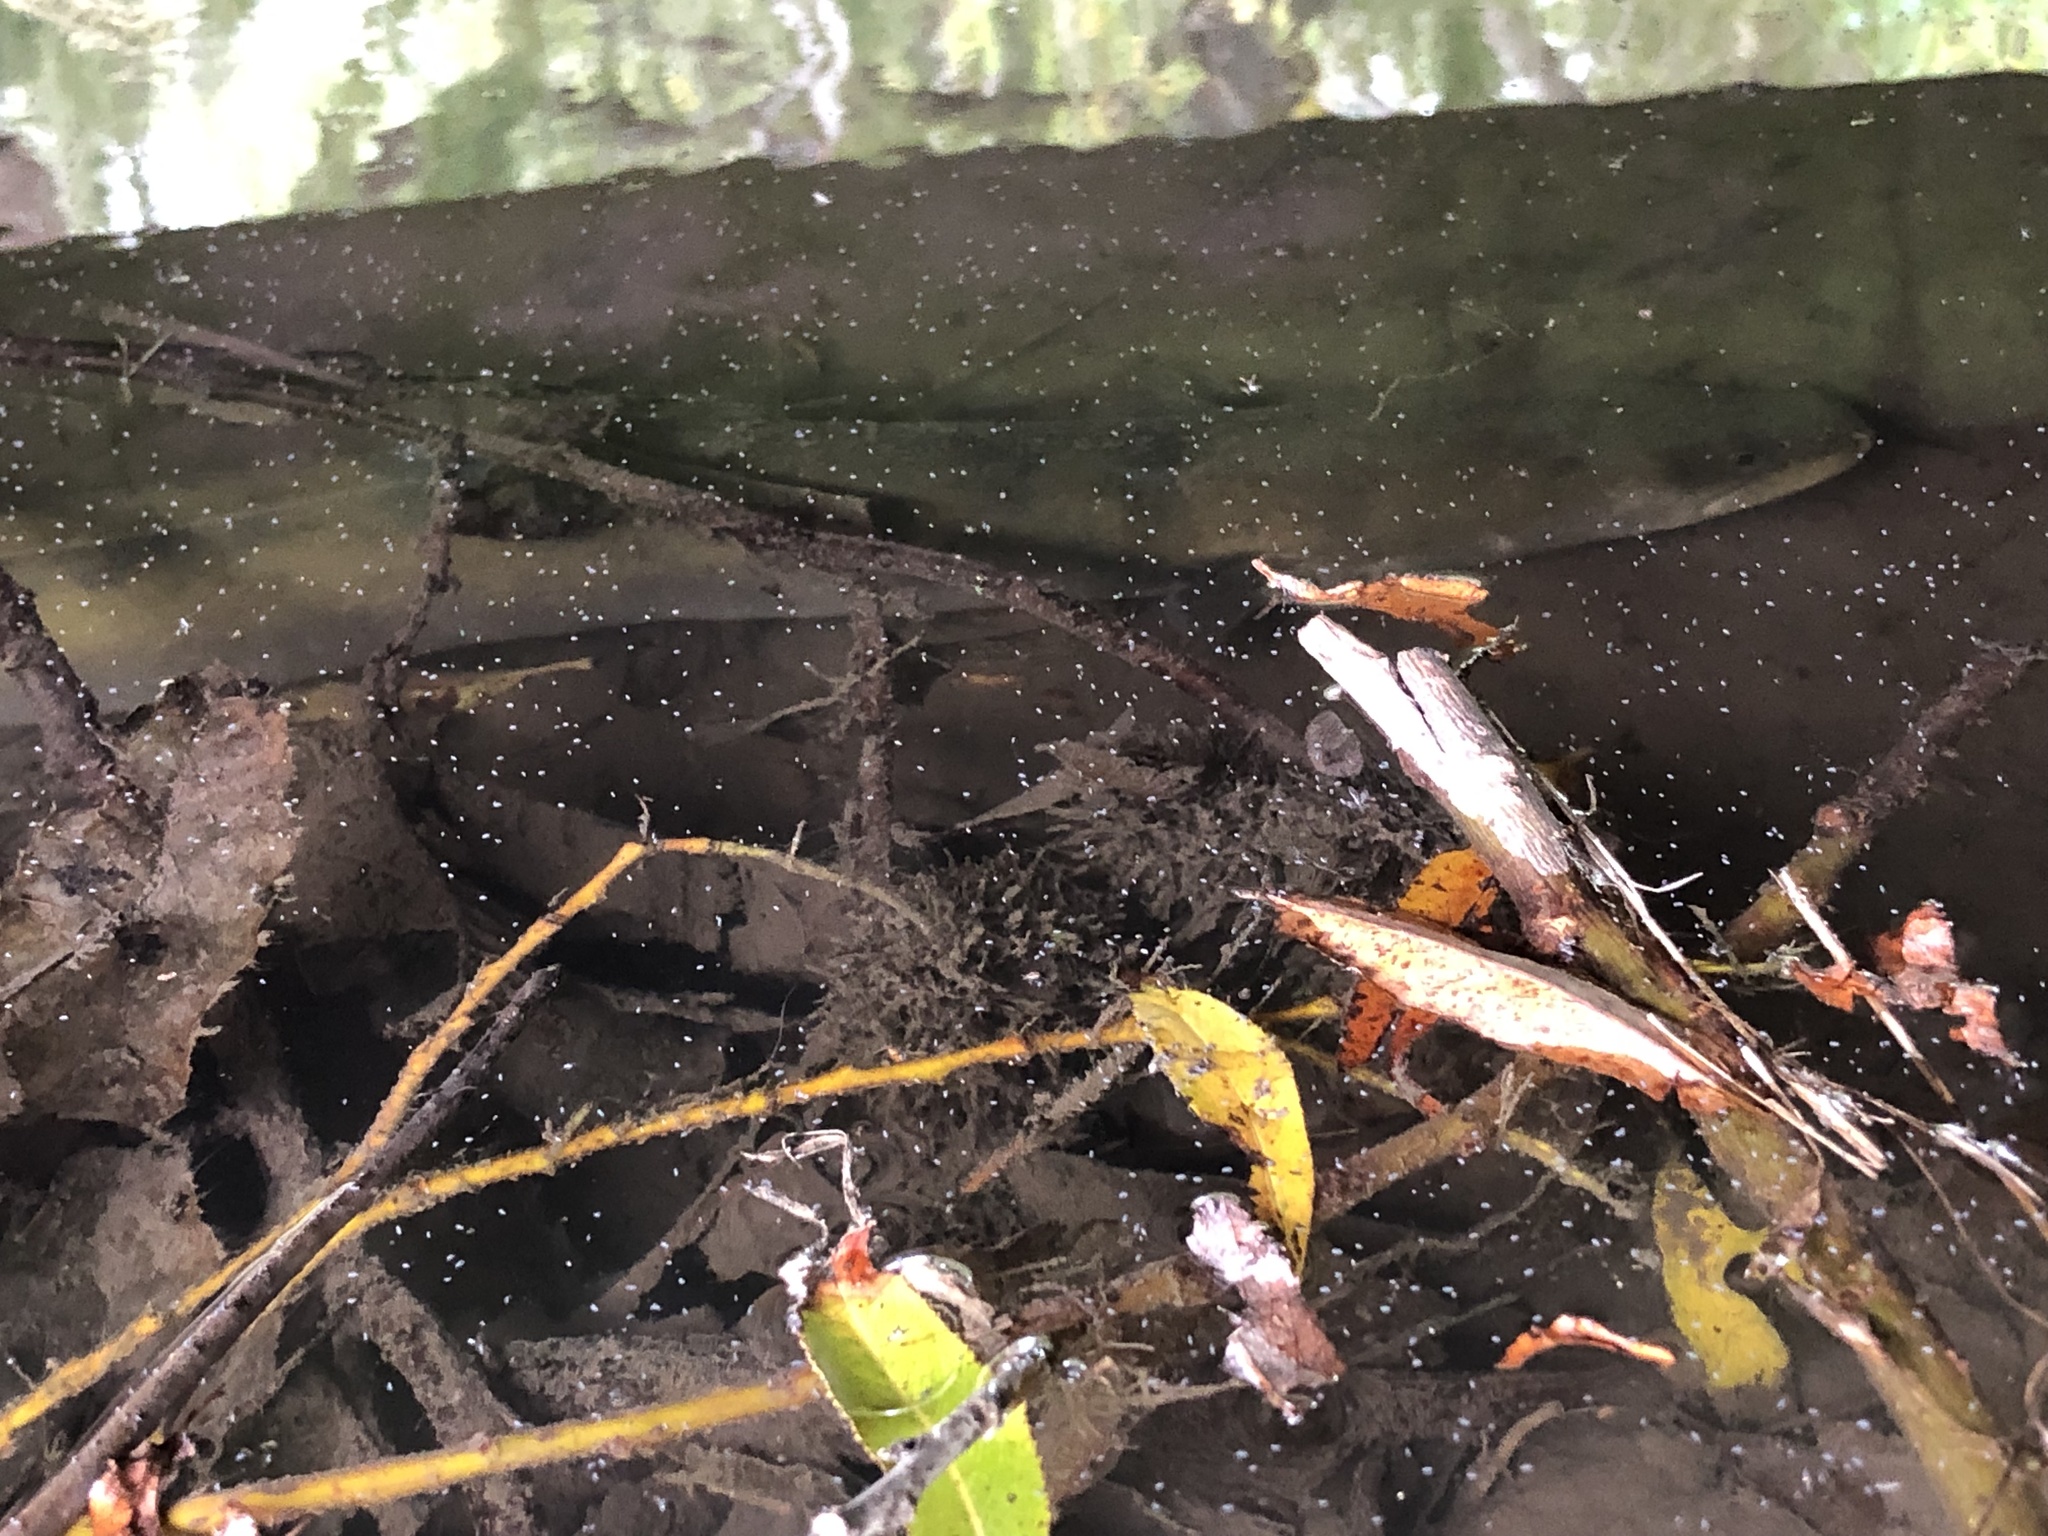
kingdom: Animalia
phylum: Chordata
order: Anguilliformes
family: Anguillidae
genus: Anguilla
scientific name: Anguilla dieffenbachii
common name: New zealand longfin eel
